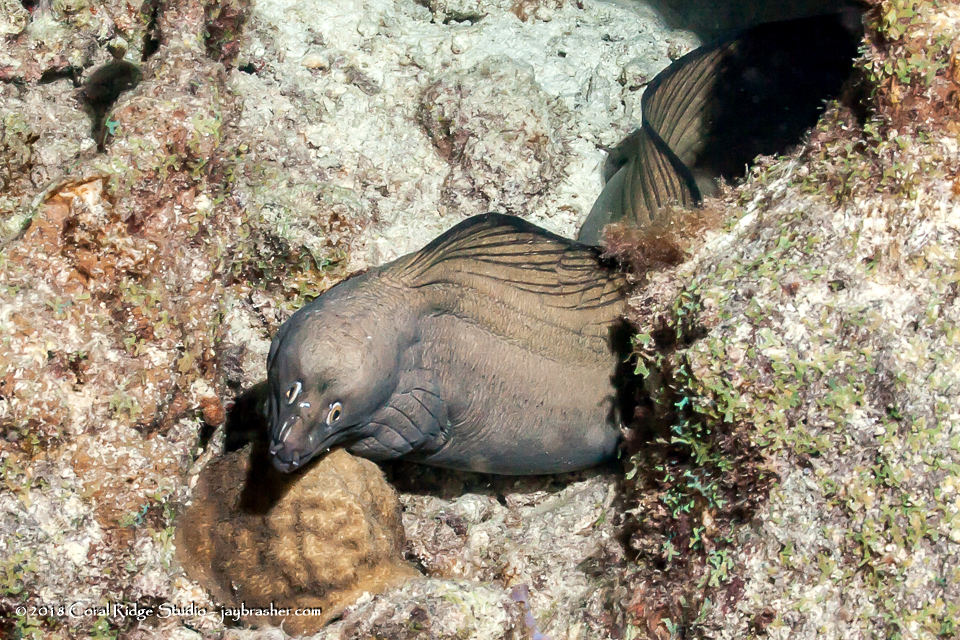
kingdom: Animalia
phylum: Chordata
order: Anguilliformes
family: Muraenidae
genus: Gymnothorax
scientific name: Gymnothorax vicinus
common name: Purplemouth moray
